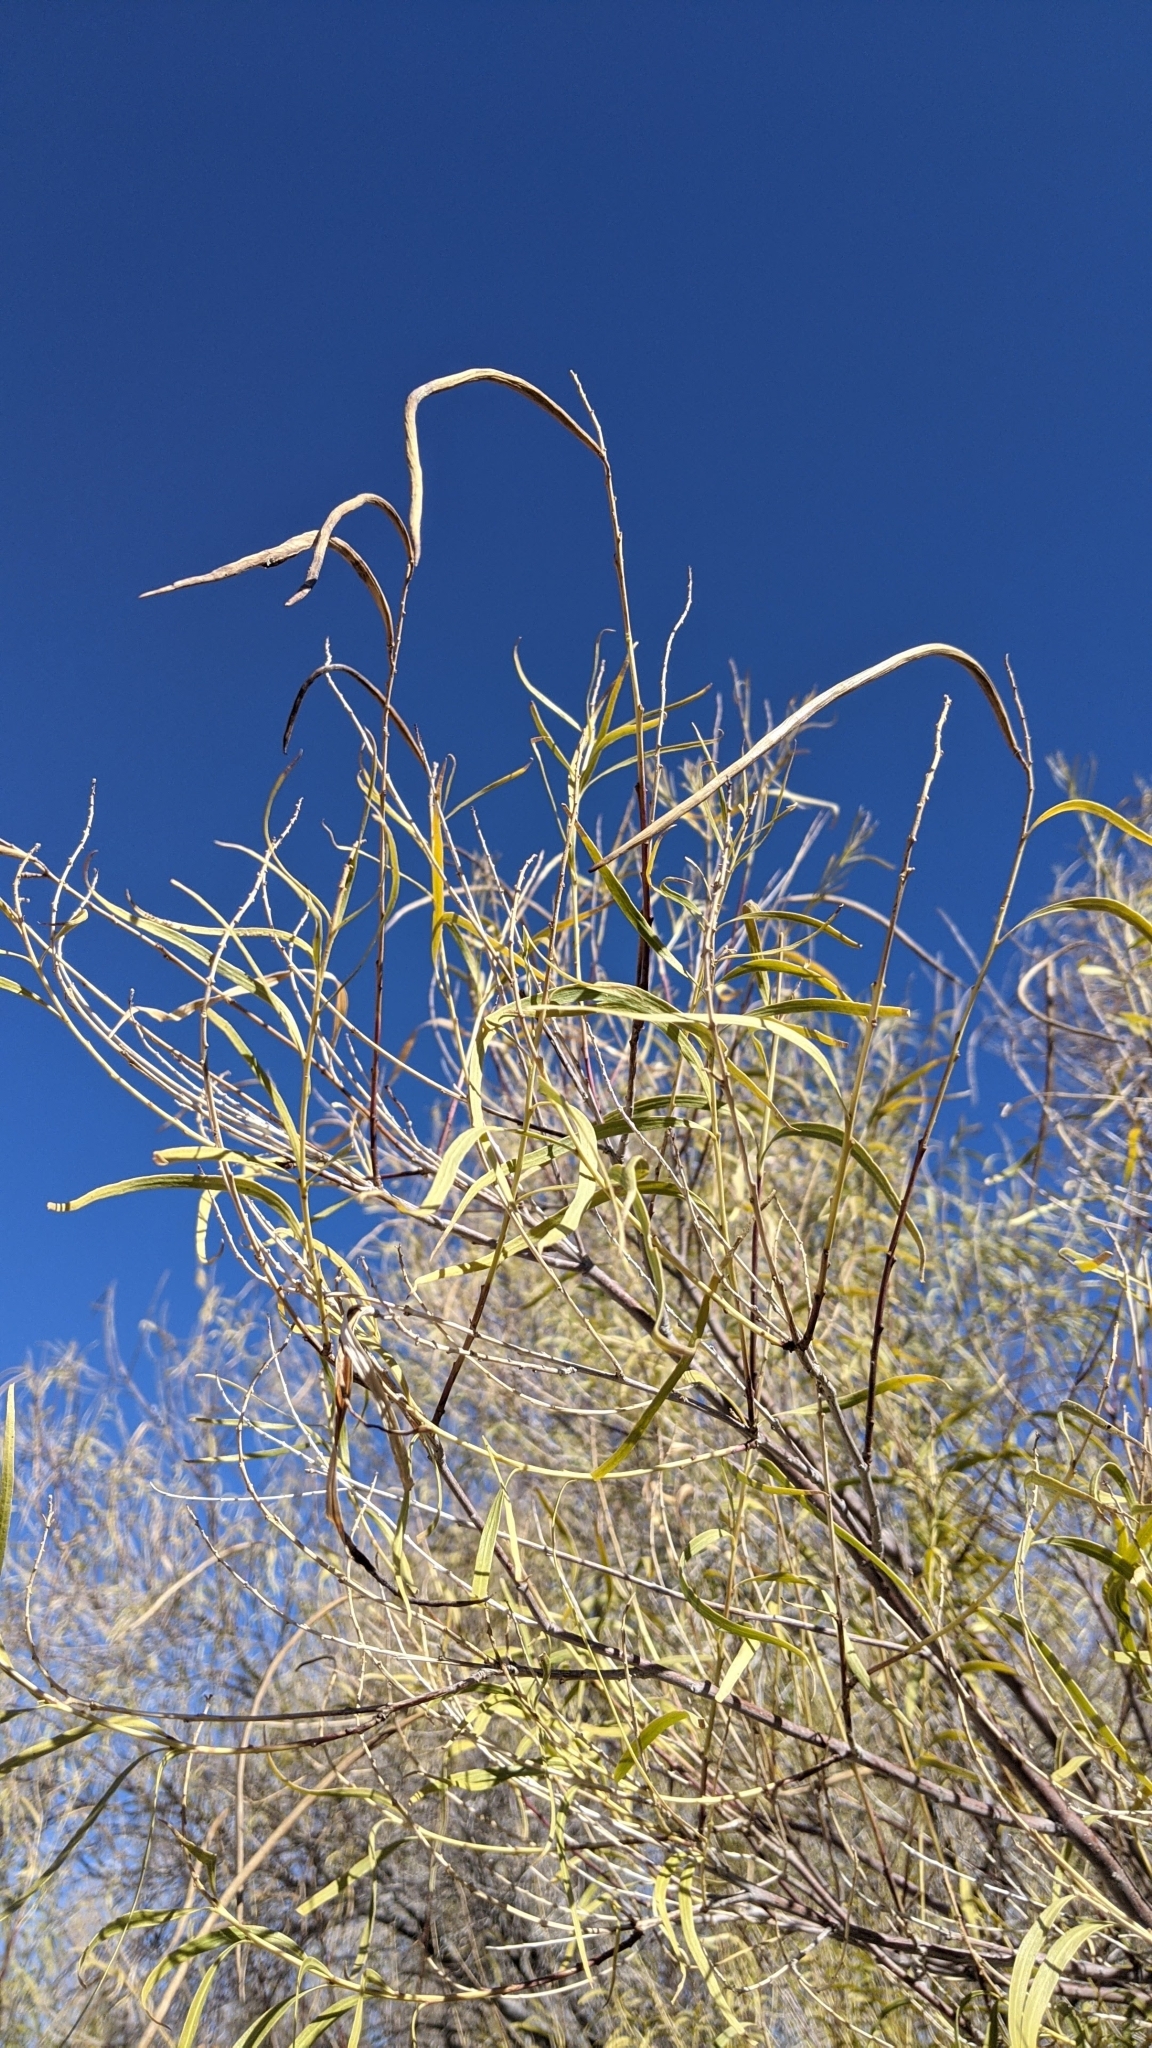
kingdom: Plantae
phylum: Tracheophyta
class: Magnoliopsida
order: Lamiales
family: Bignoniaceae
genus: Chilopsis
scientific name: Chilopsis linearis
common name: Desert-willow
